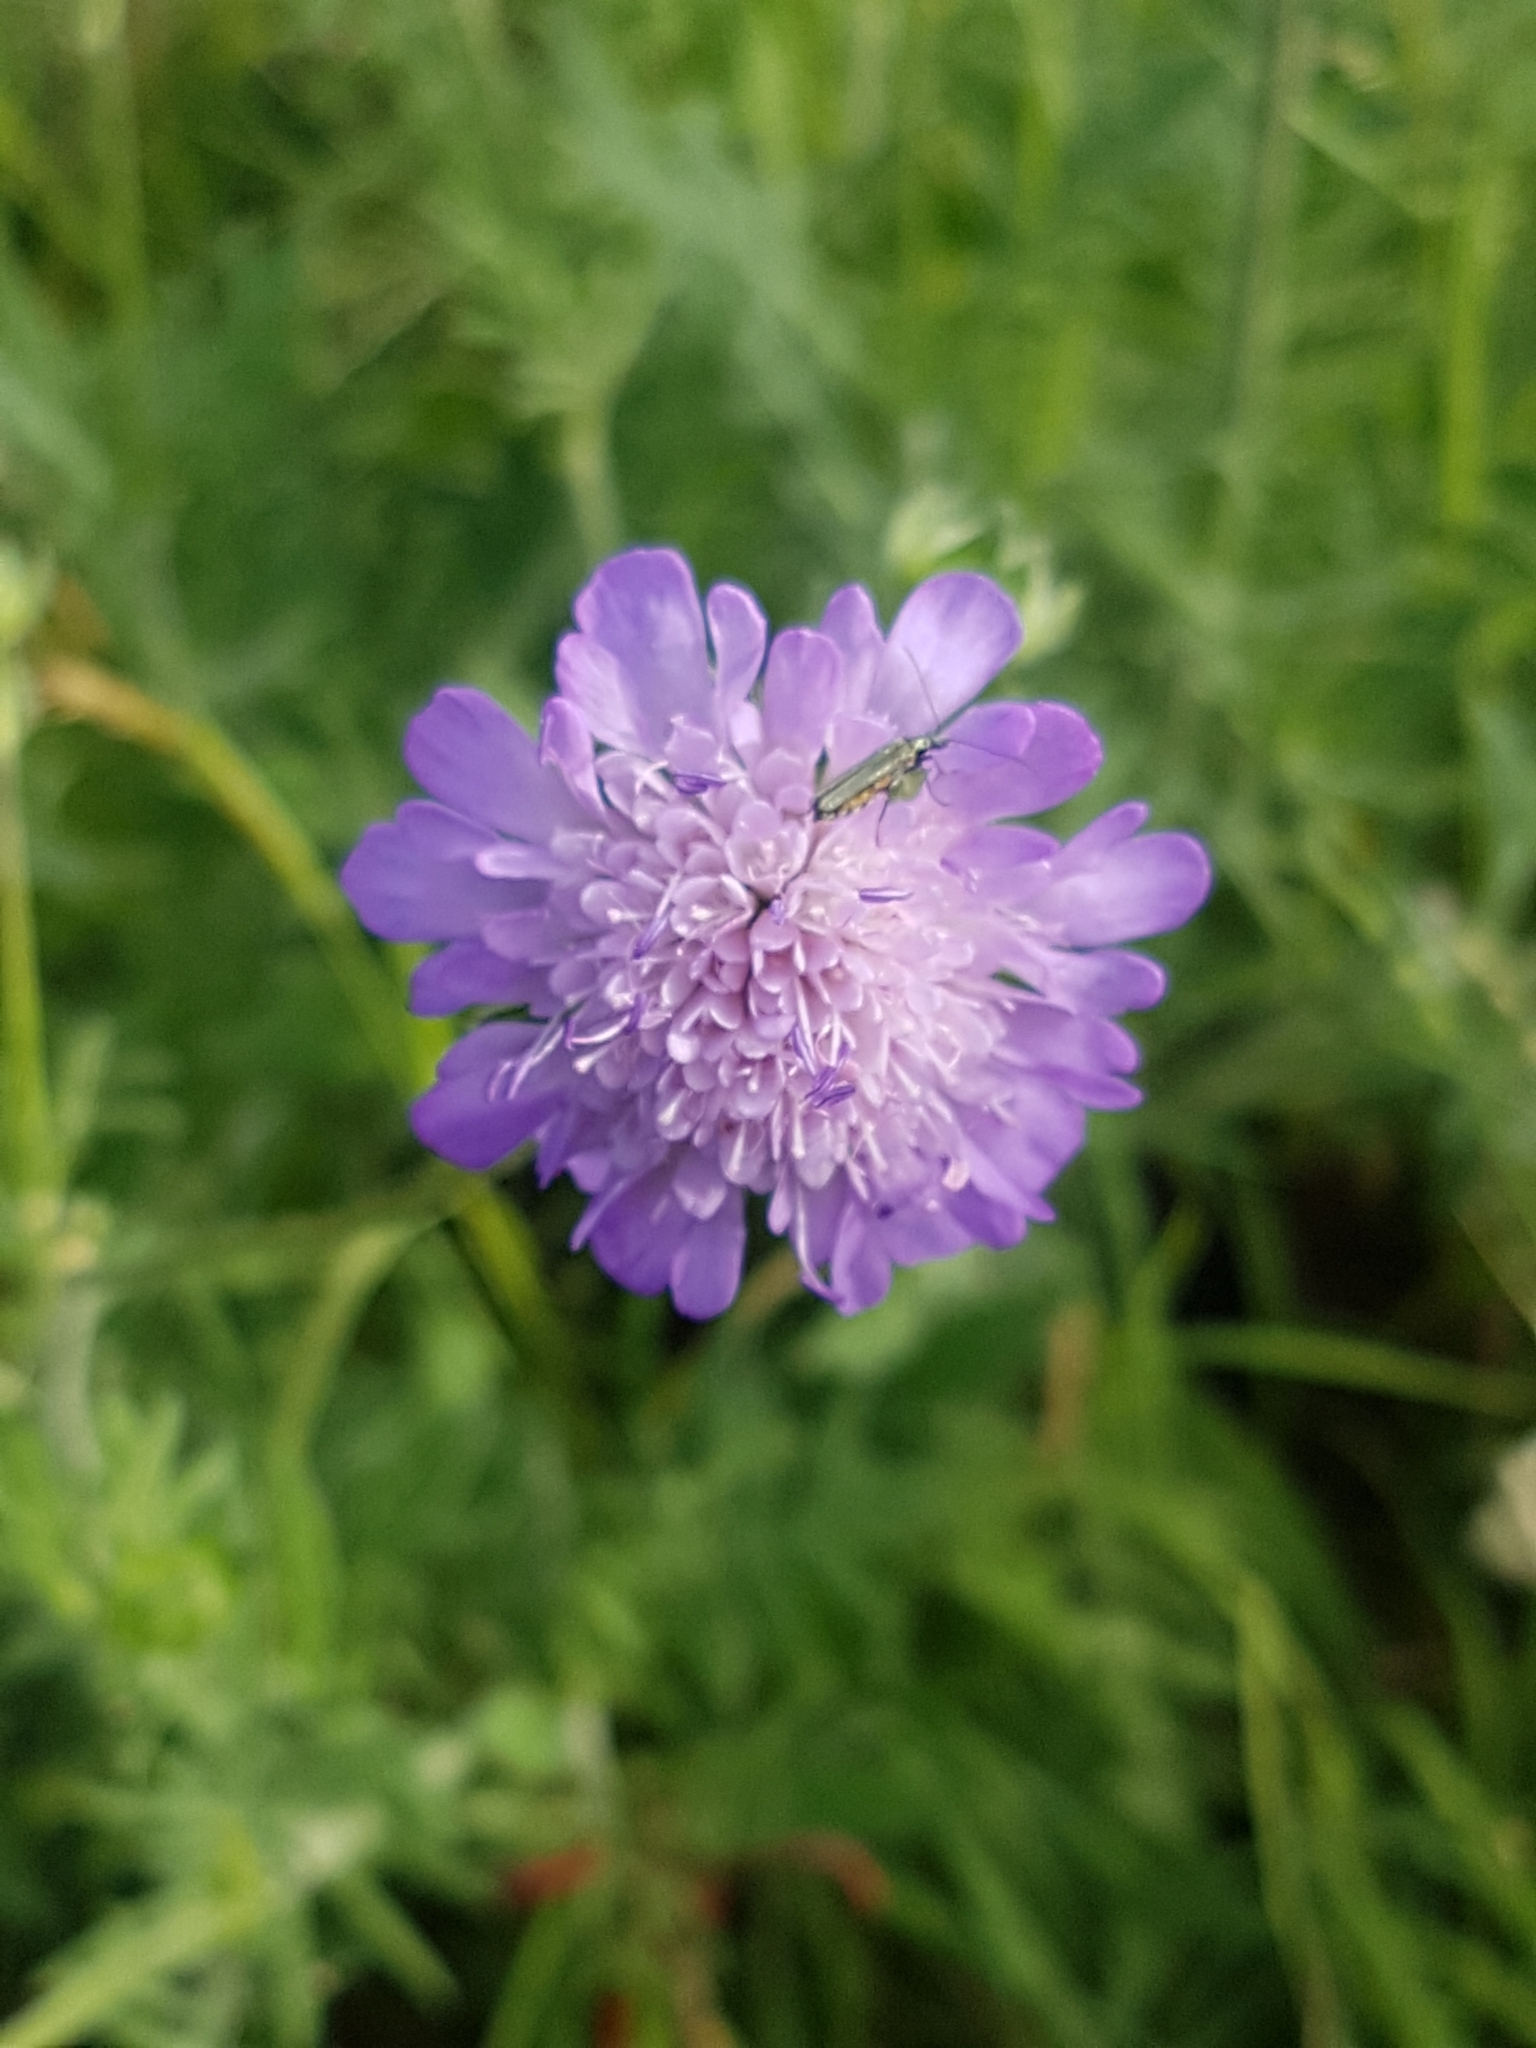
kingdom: Plantae
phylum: Tracheophyta
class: Magnoliopsida
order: Dipsacales
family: Caprifoliaceae
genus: Knautia
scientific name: Knautia arvensis
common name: Field scabiosa
